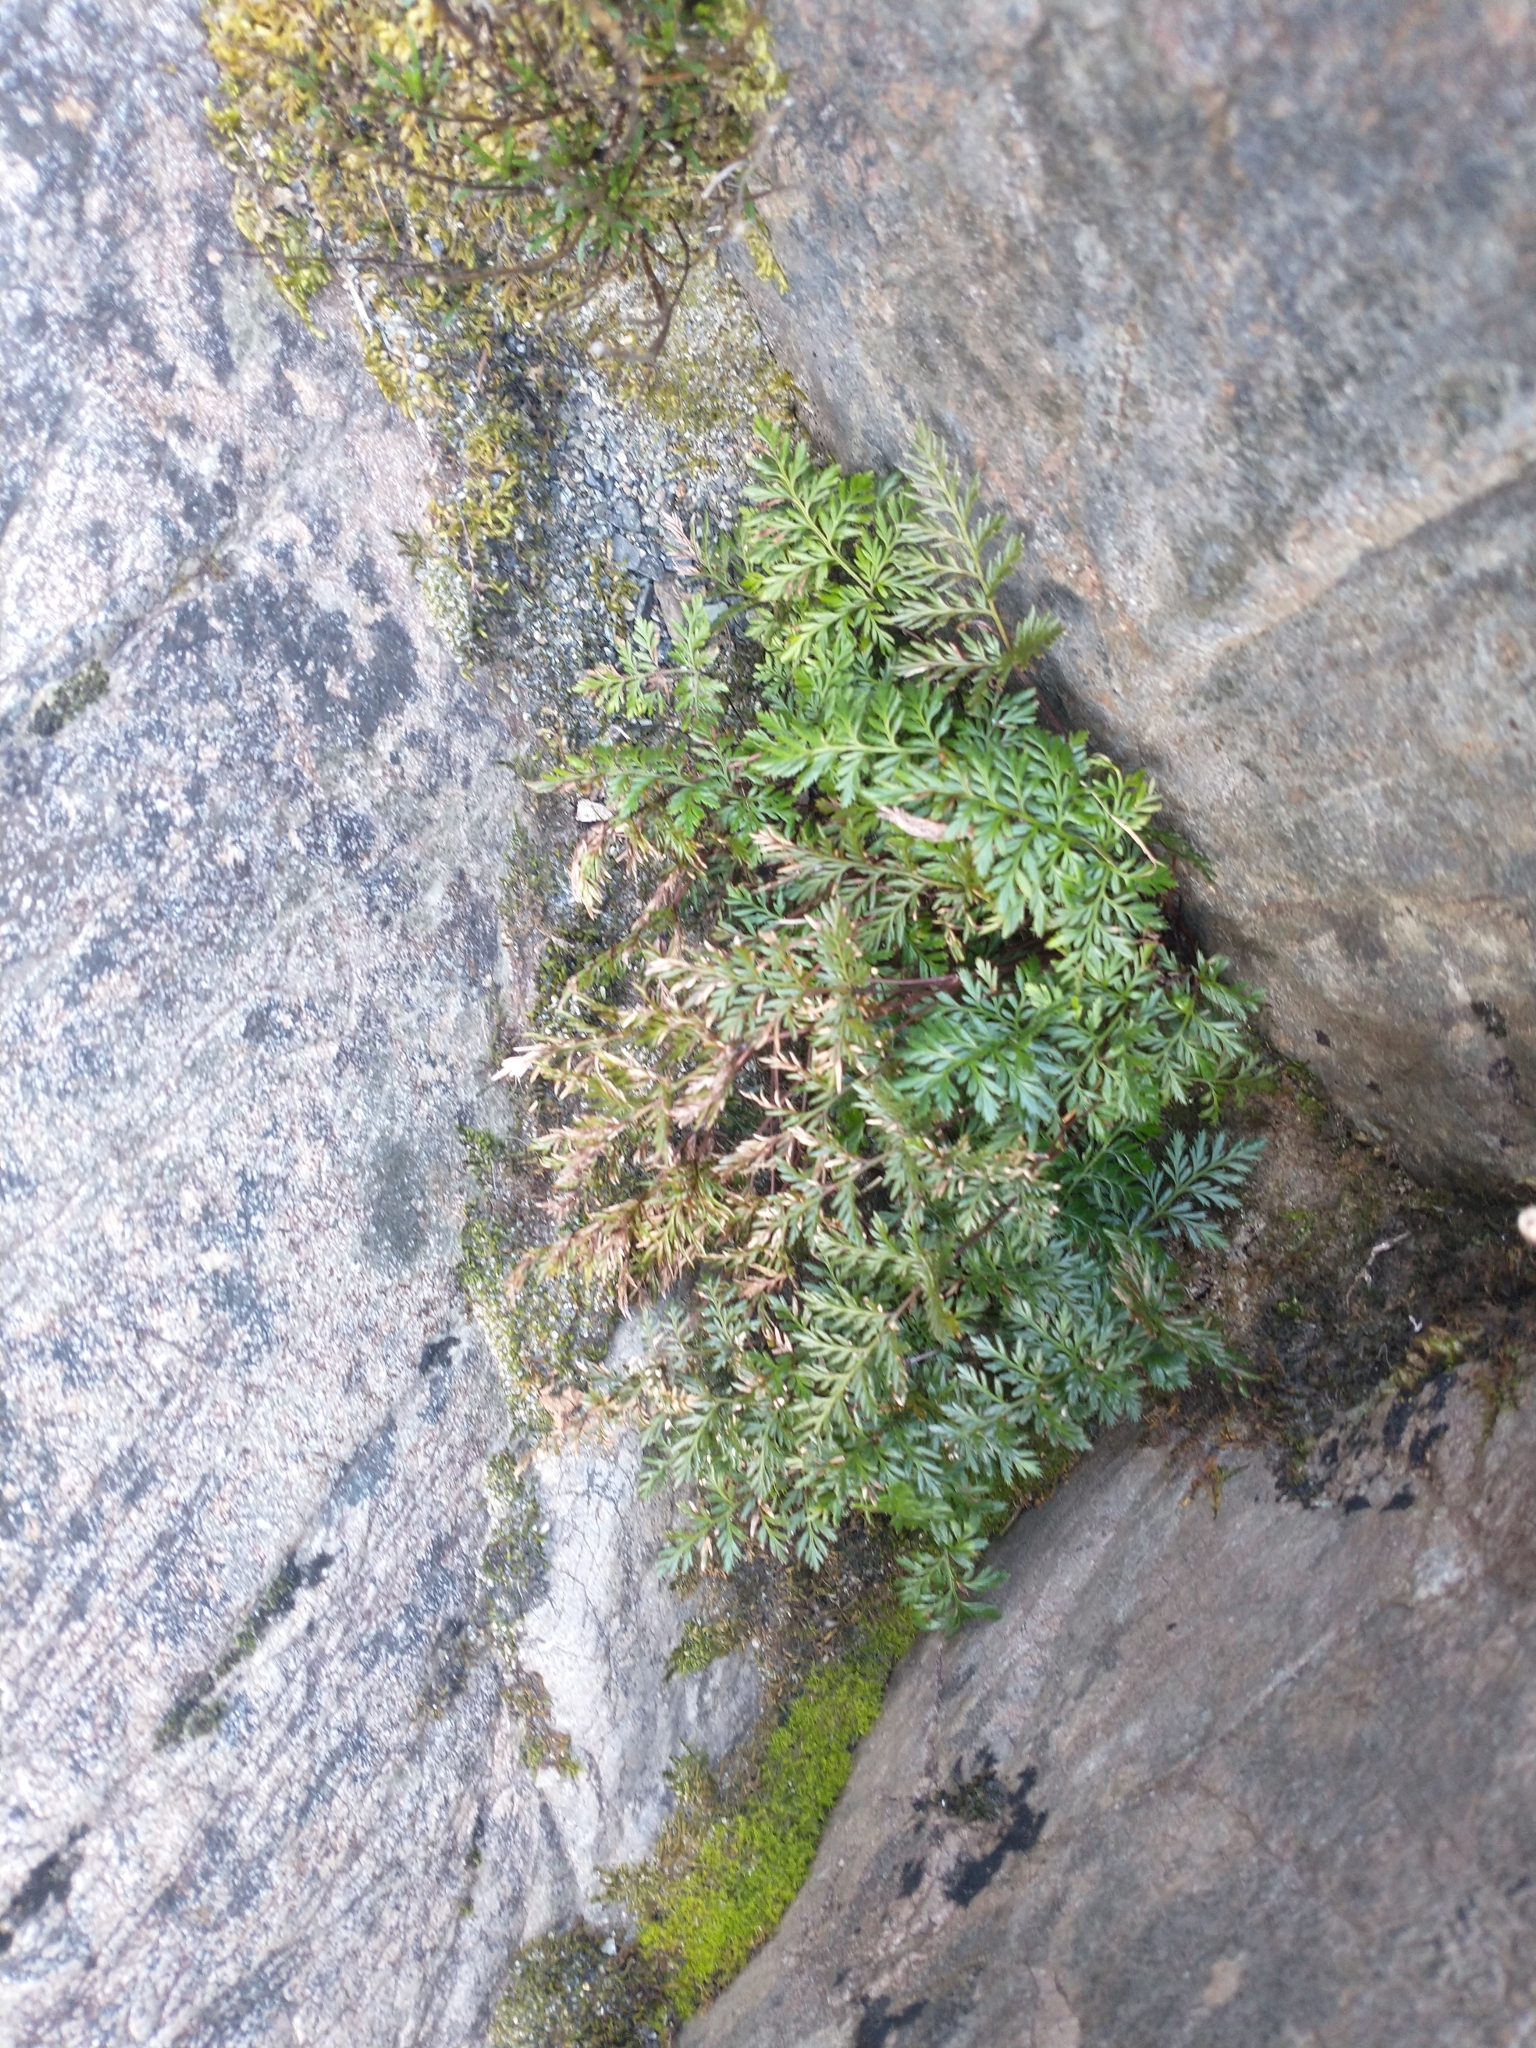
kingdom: Plantae
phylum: Tracheophyta
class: Polypodiopsida
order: Polypodiales
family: Pteridaceae
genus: Aspidotis
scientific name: Aspidotis densa
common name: Indian's dream
